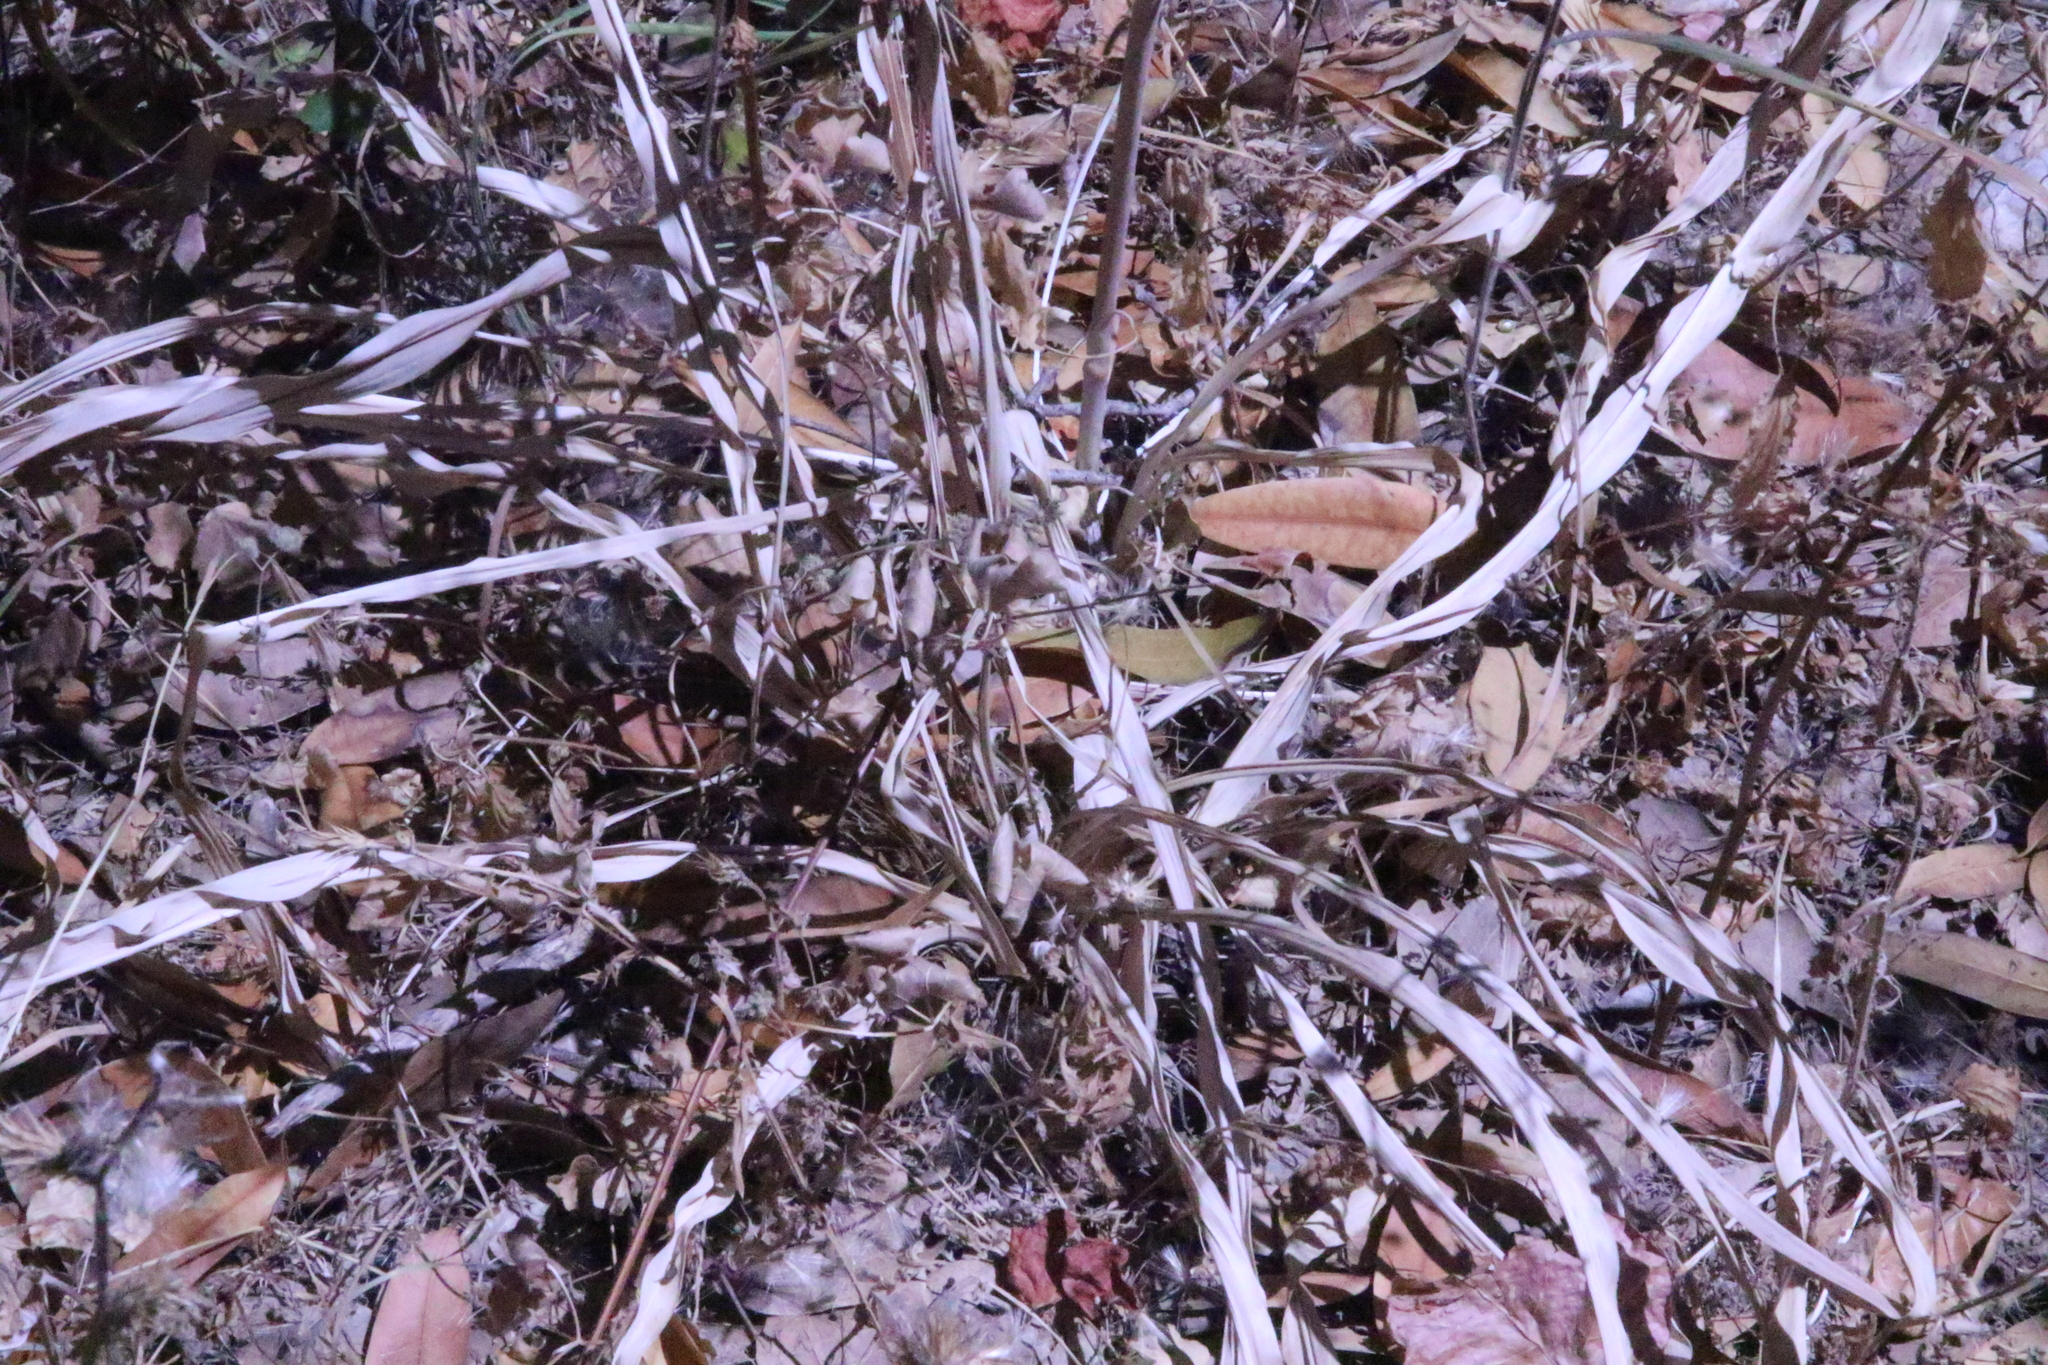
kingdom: Plantae
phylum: Tracheophyta
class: Liliopsida
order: Asparagales
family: Asparagaceae
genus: Chlorogalum
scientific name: Chlorogalum pomeridianum
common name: Amole
